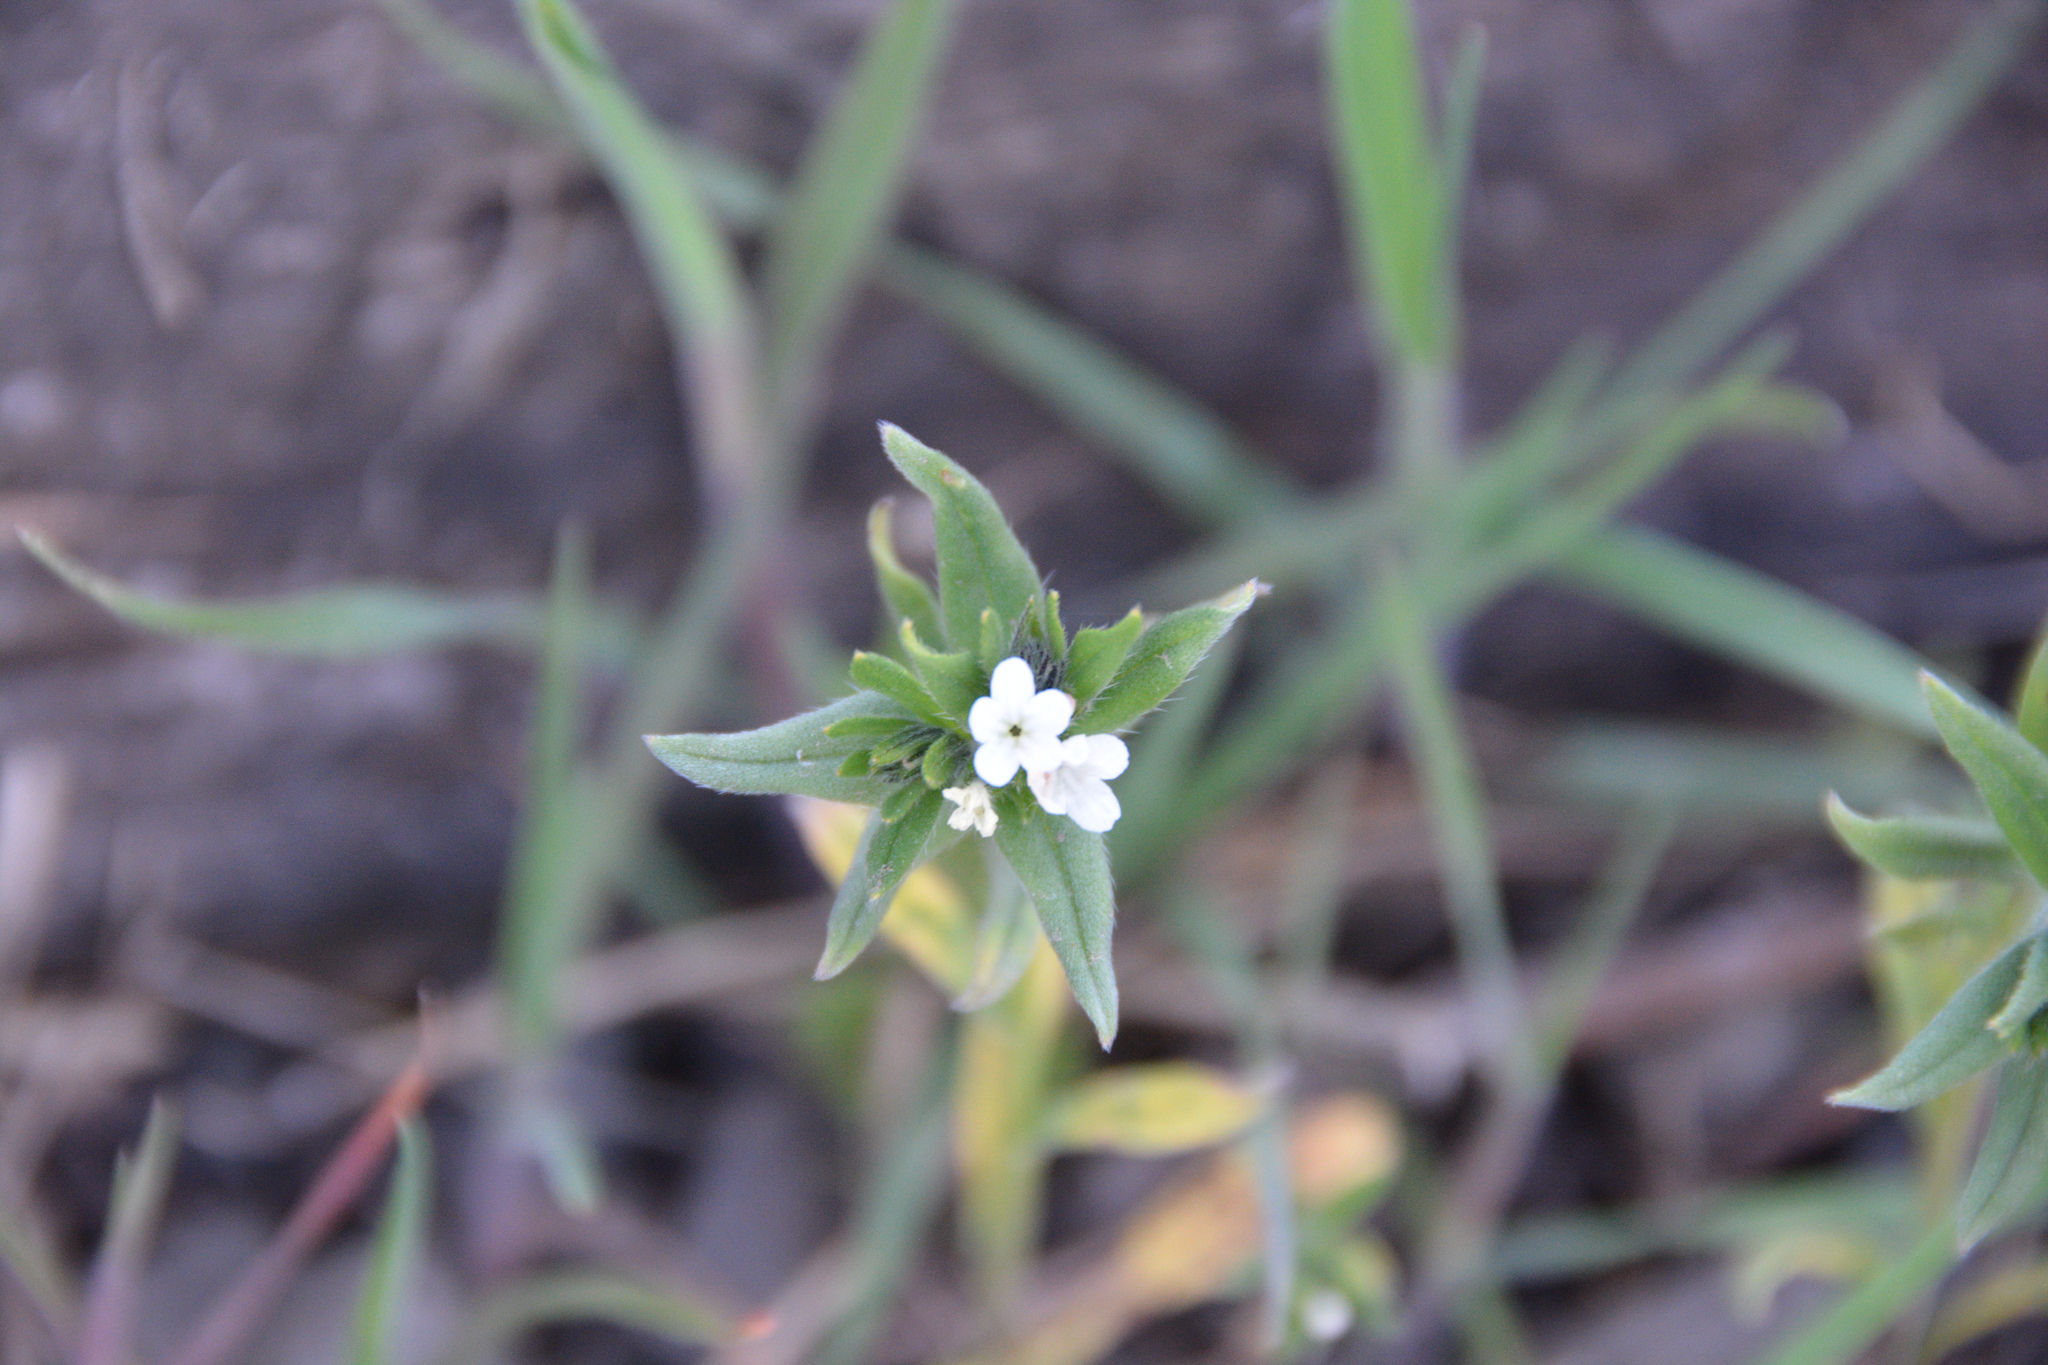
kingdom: Plantae
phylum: Tracheophyta
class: Magnoliopsida
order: Boraginales
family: Boraginaceae
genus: Buglossoides
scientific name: Buglossoides arvensis
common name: Corn gromwell
